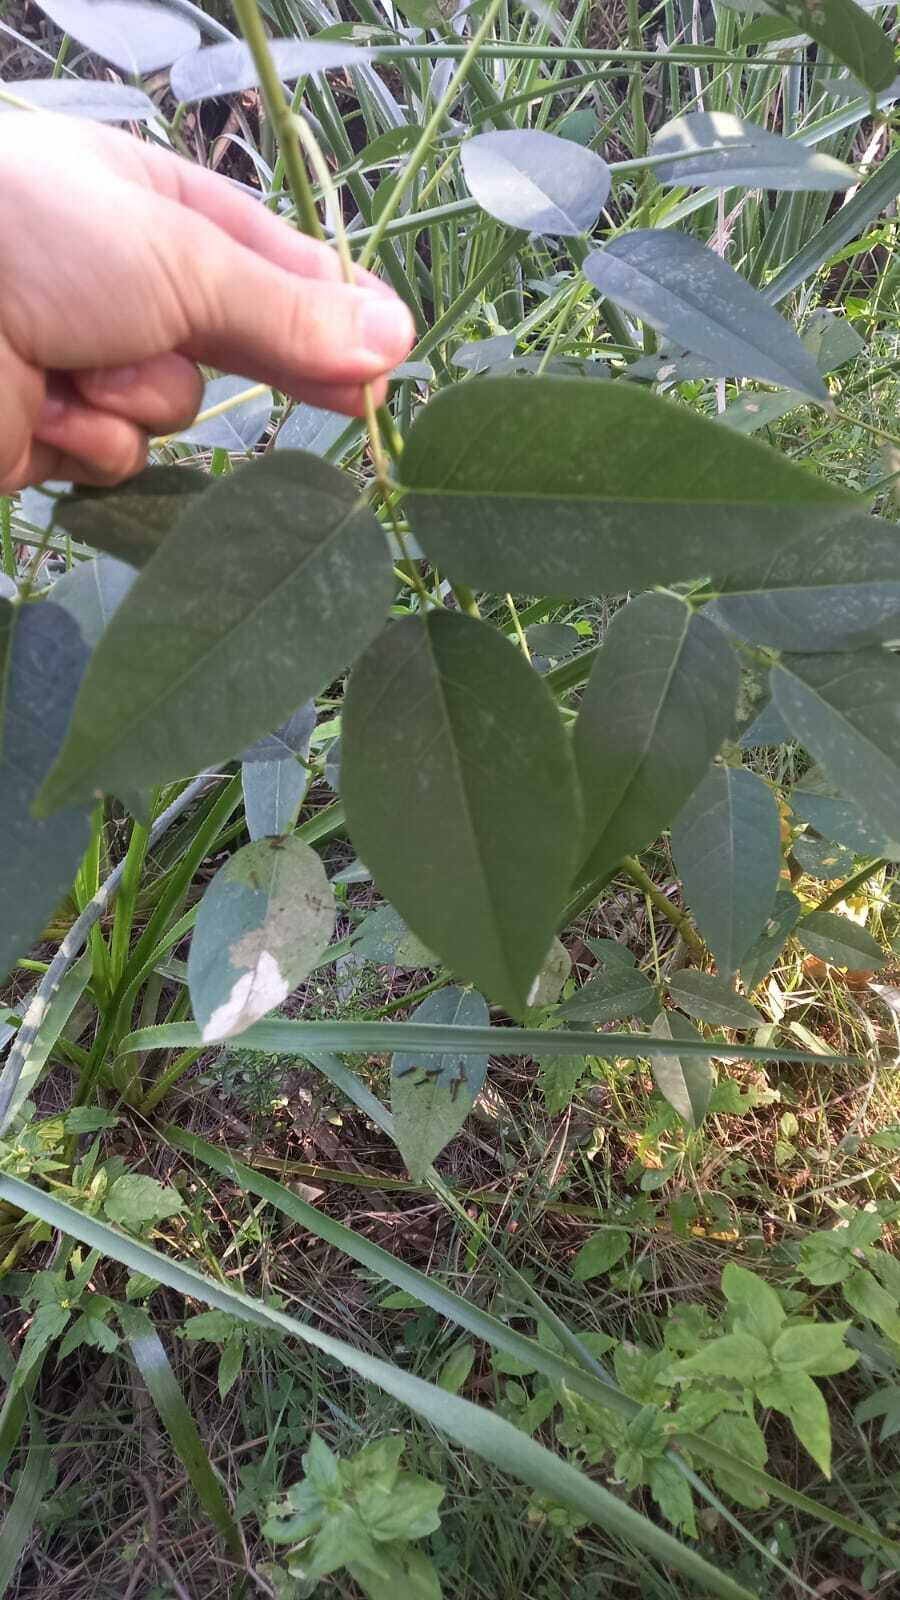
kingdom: Plantae
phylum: Tracheophyta
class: Magnoliopsida
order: Fabales
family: Fabaceae
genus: Erythrina
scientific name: Erythrina crista-galli
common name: Cockspur coral tree
